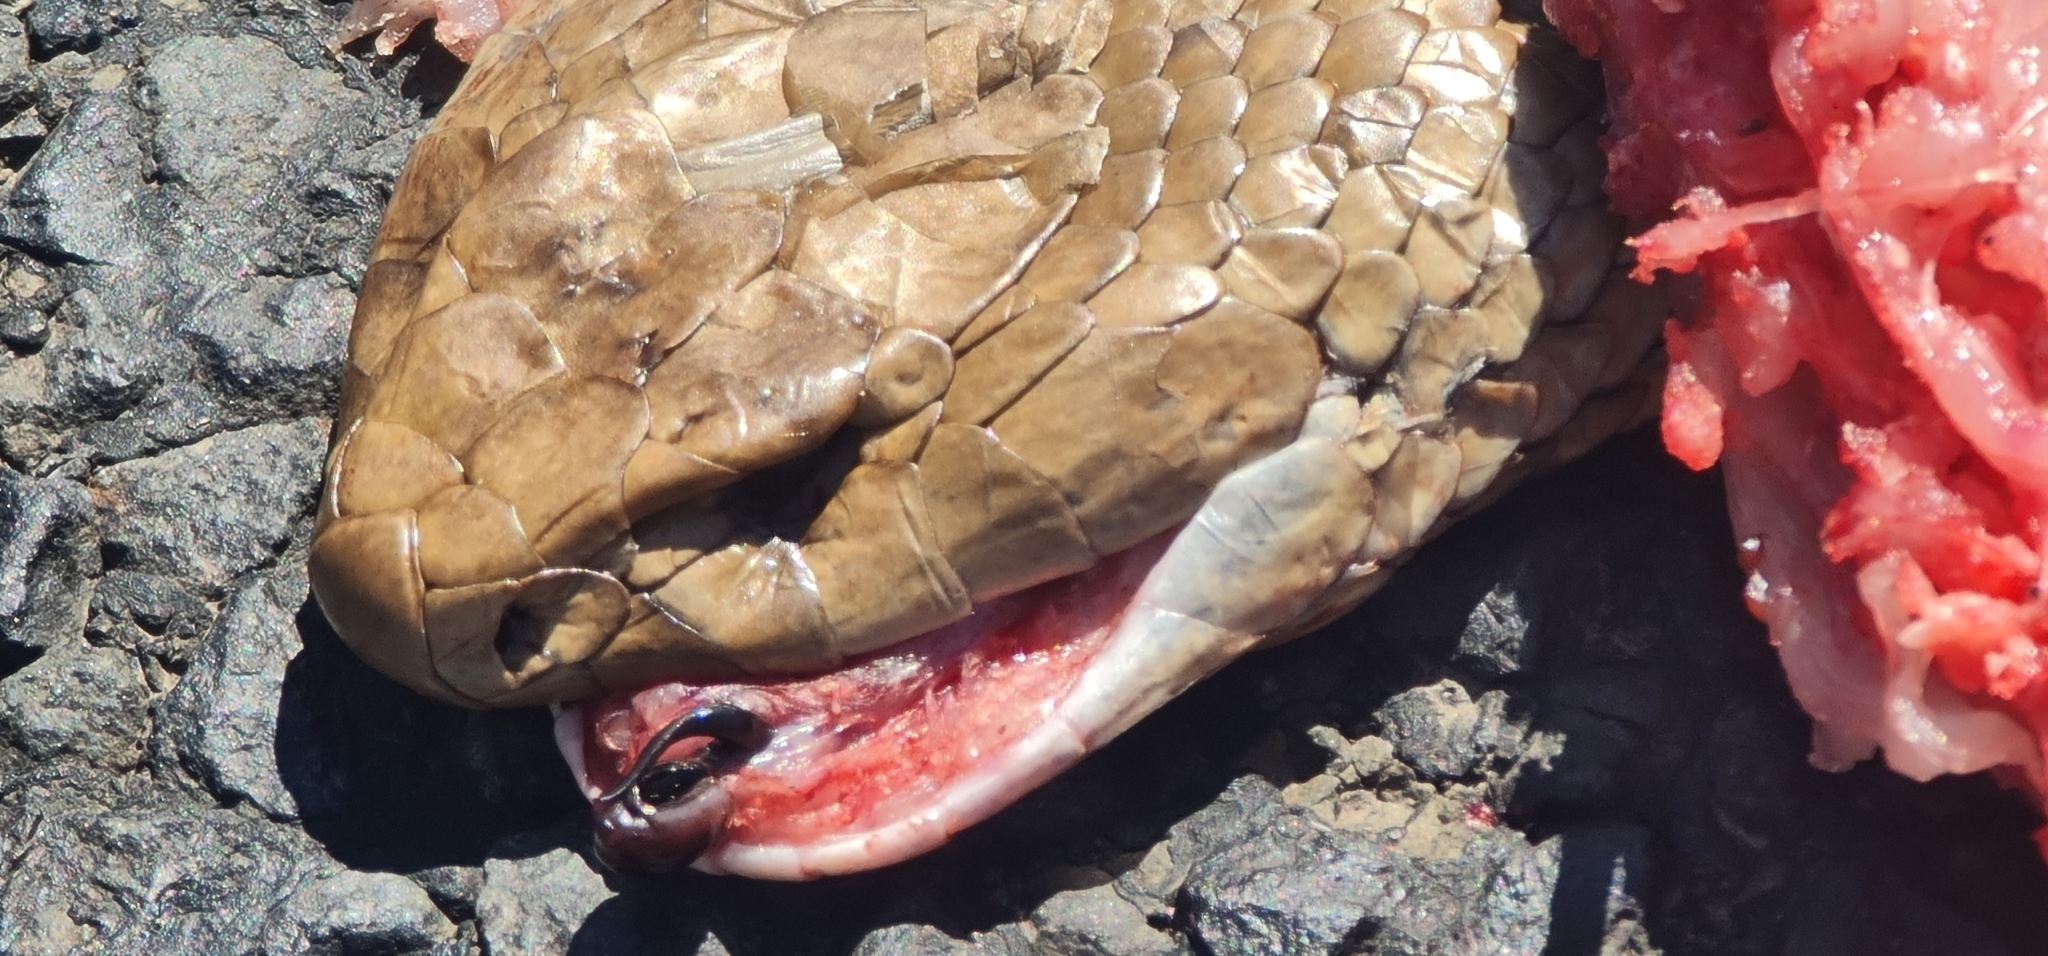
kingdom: Animalia
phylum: Chordata
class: Squamata
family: Elapidae
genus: Pseudonaja
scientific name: Pseudonaja textilis
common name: Eastern brown snake
